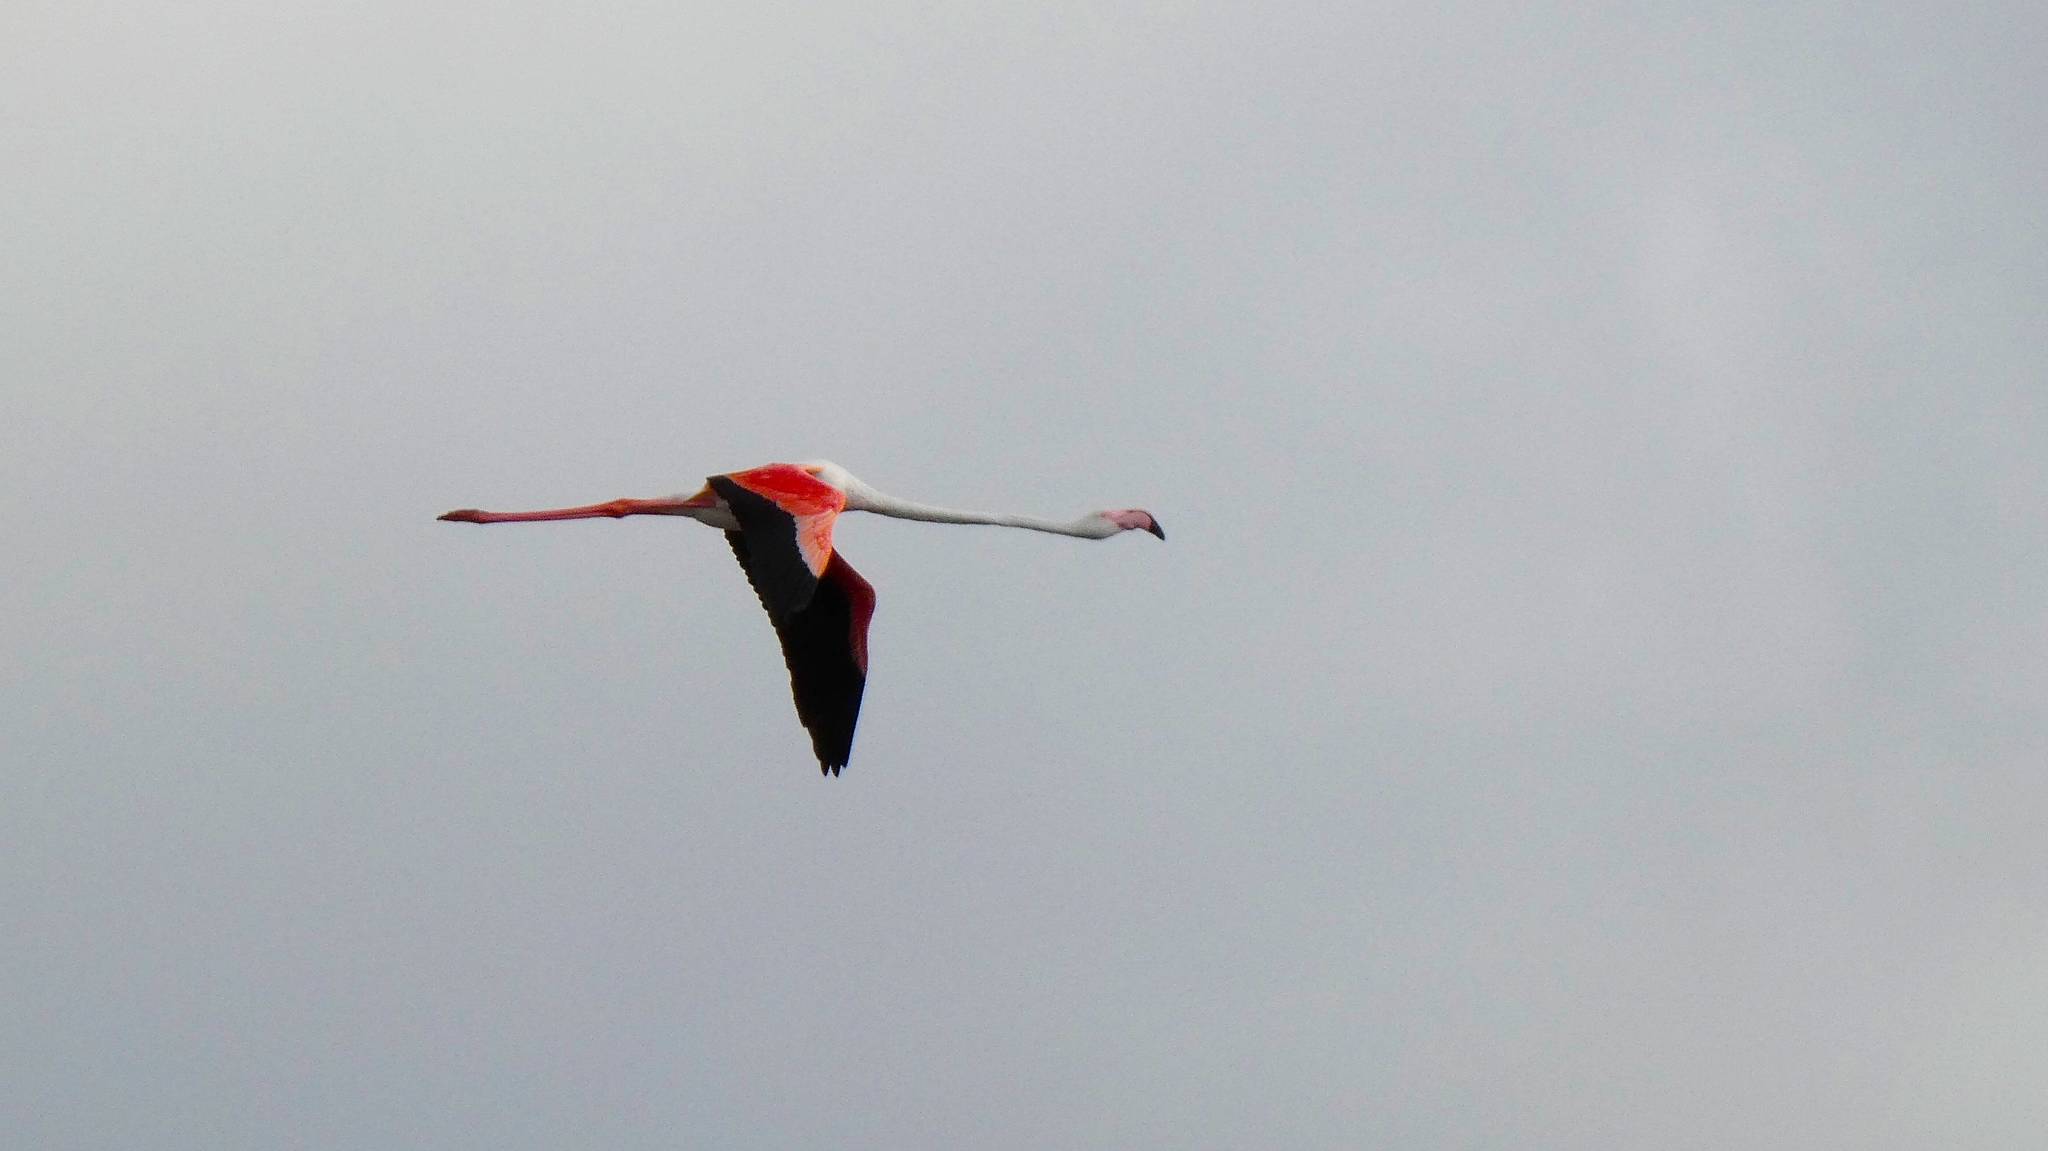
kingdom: Animalia
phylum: Chordata
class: Aves
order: Phoenicopteriformes
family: Phoenicopteridae
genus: Phoenicopterus
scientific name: Phoenicopterus roseus
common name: Greater flamingo
